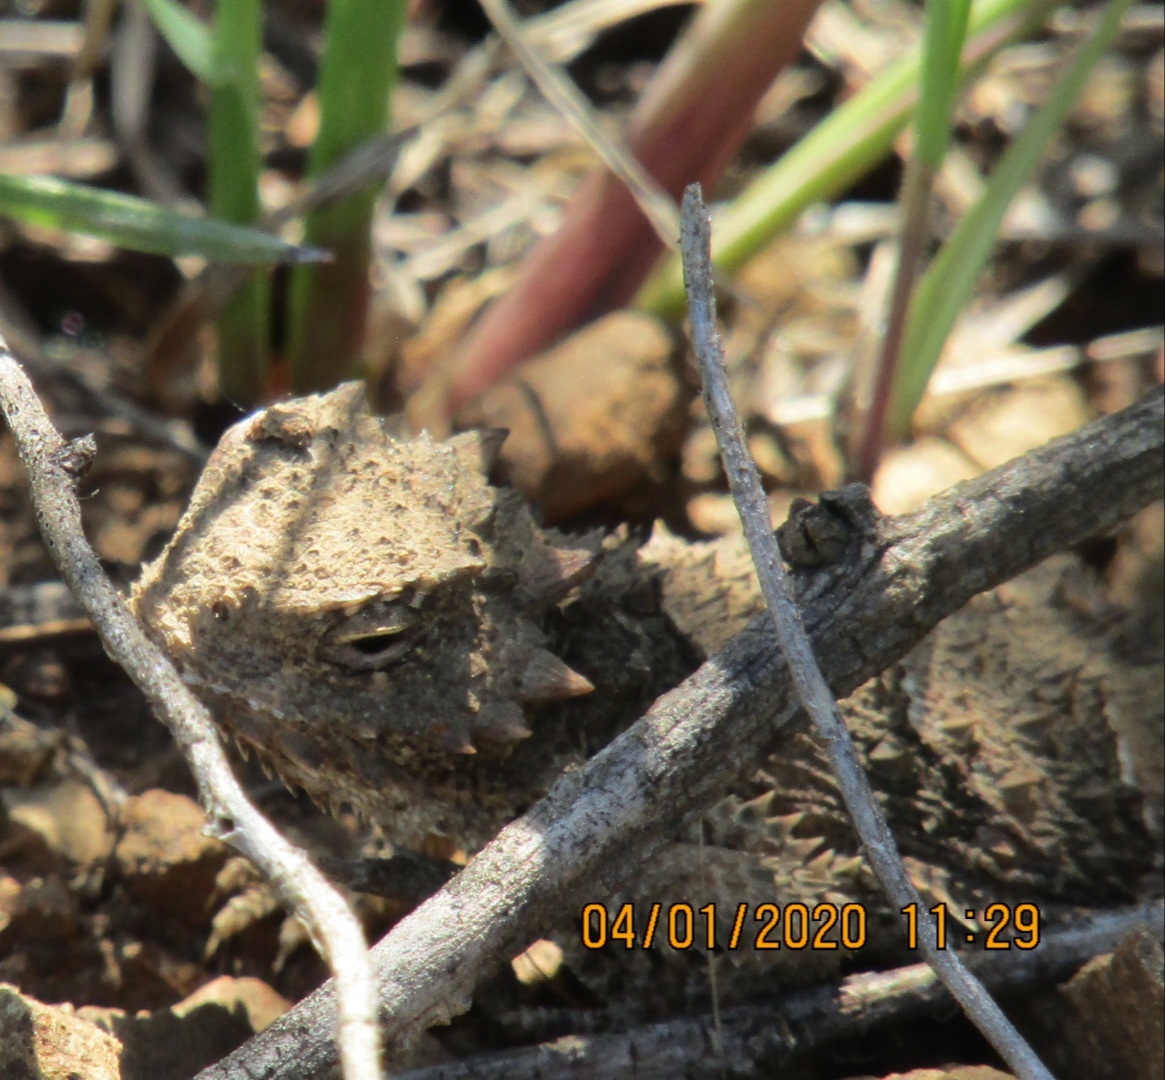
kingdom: Animalia
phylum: Chordata
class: Squamata
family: Phrynosomatidae
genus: Phrynosoma
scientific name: Phrynosoma blainvillii
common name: San diego horned lizard
